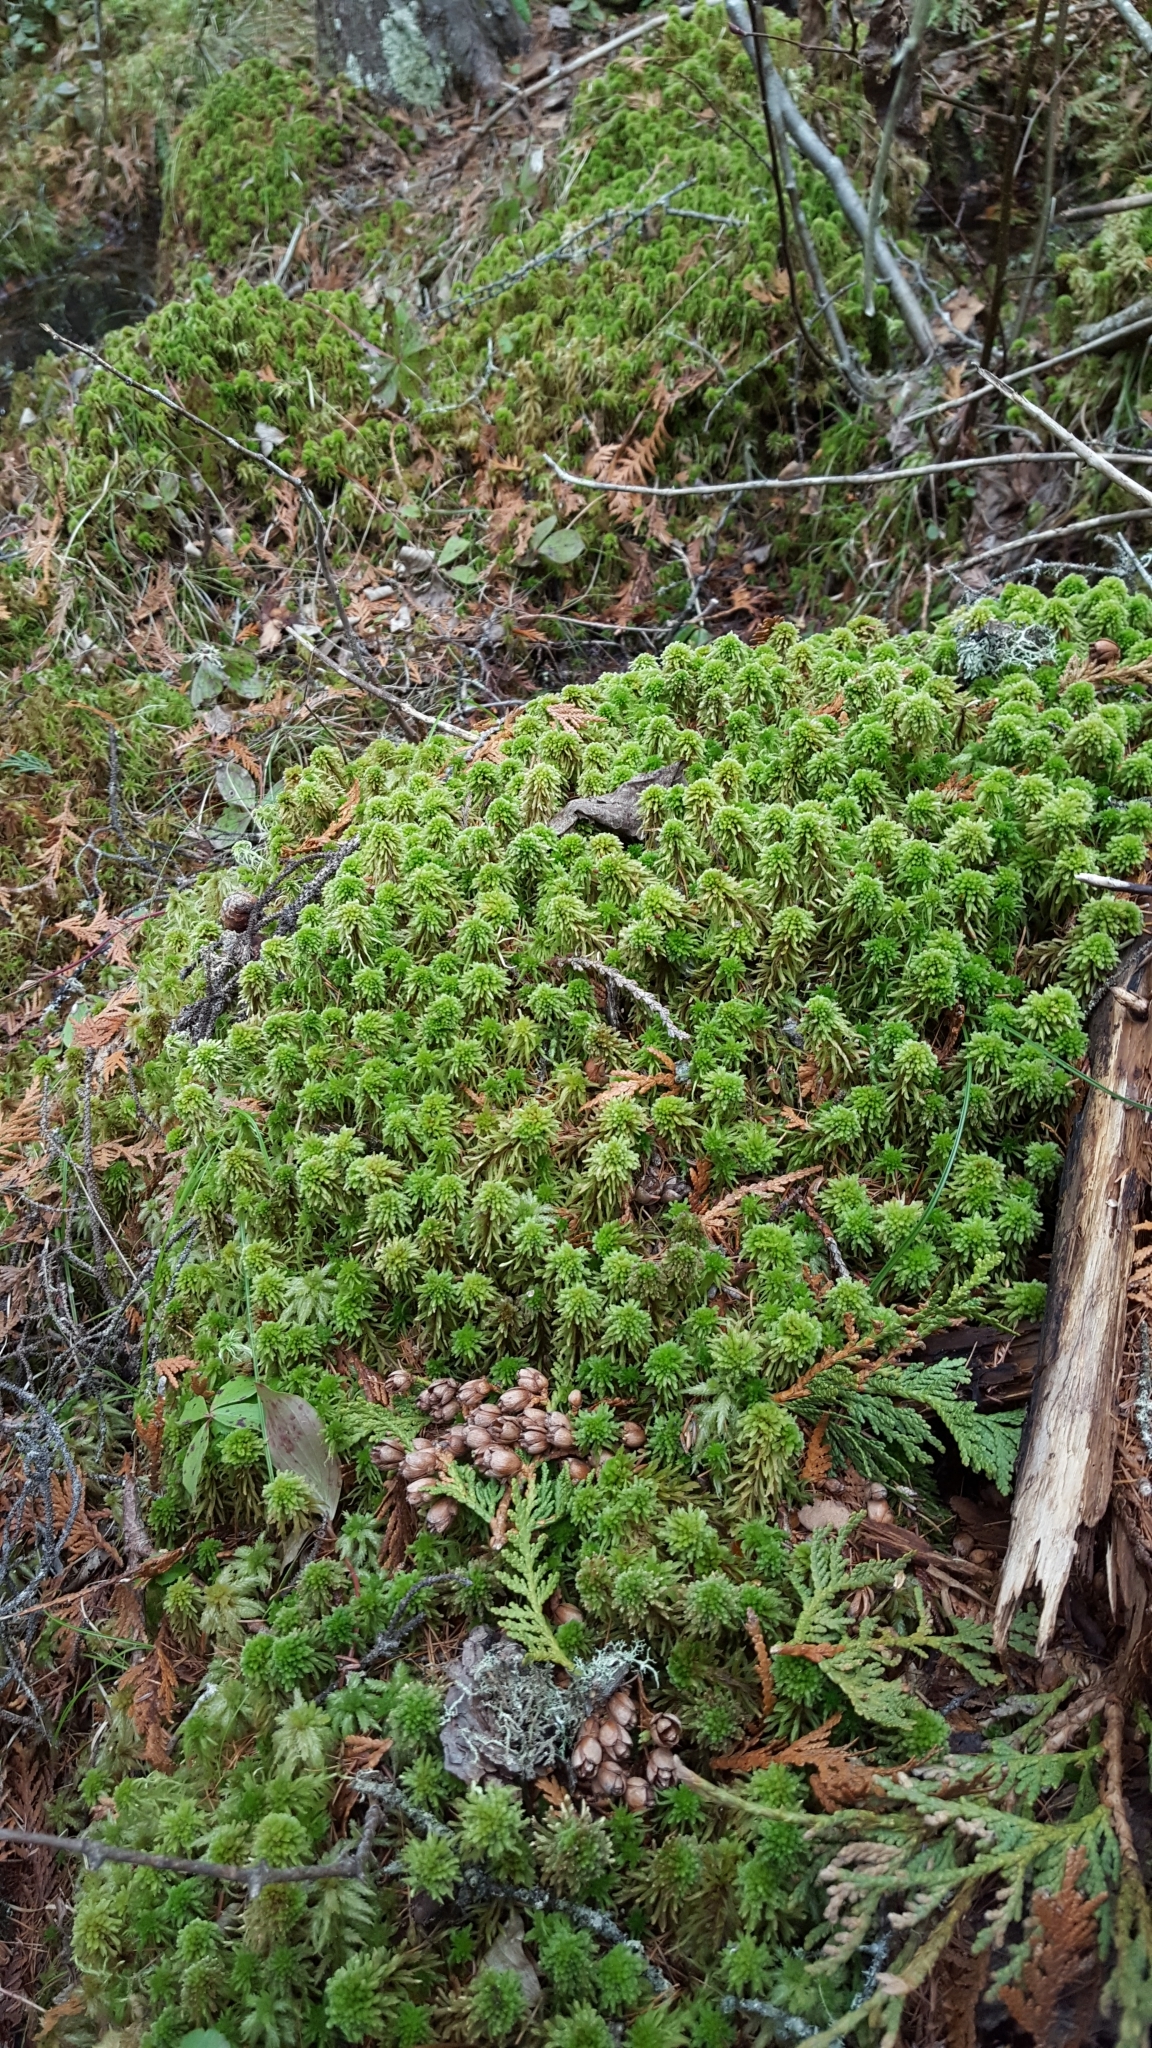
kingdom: Plantae
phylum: Bryophyta
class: Sphagnopsida
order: Sphagnales
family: Sphagnaceae
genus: Sphagnum
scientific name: Sphagnum wulfianum
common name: Wulf's peat moss
